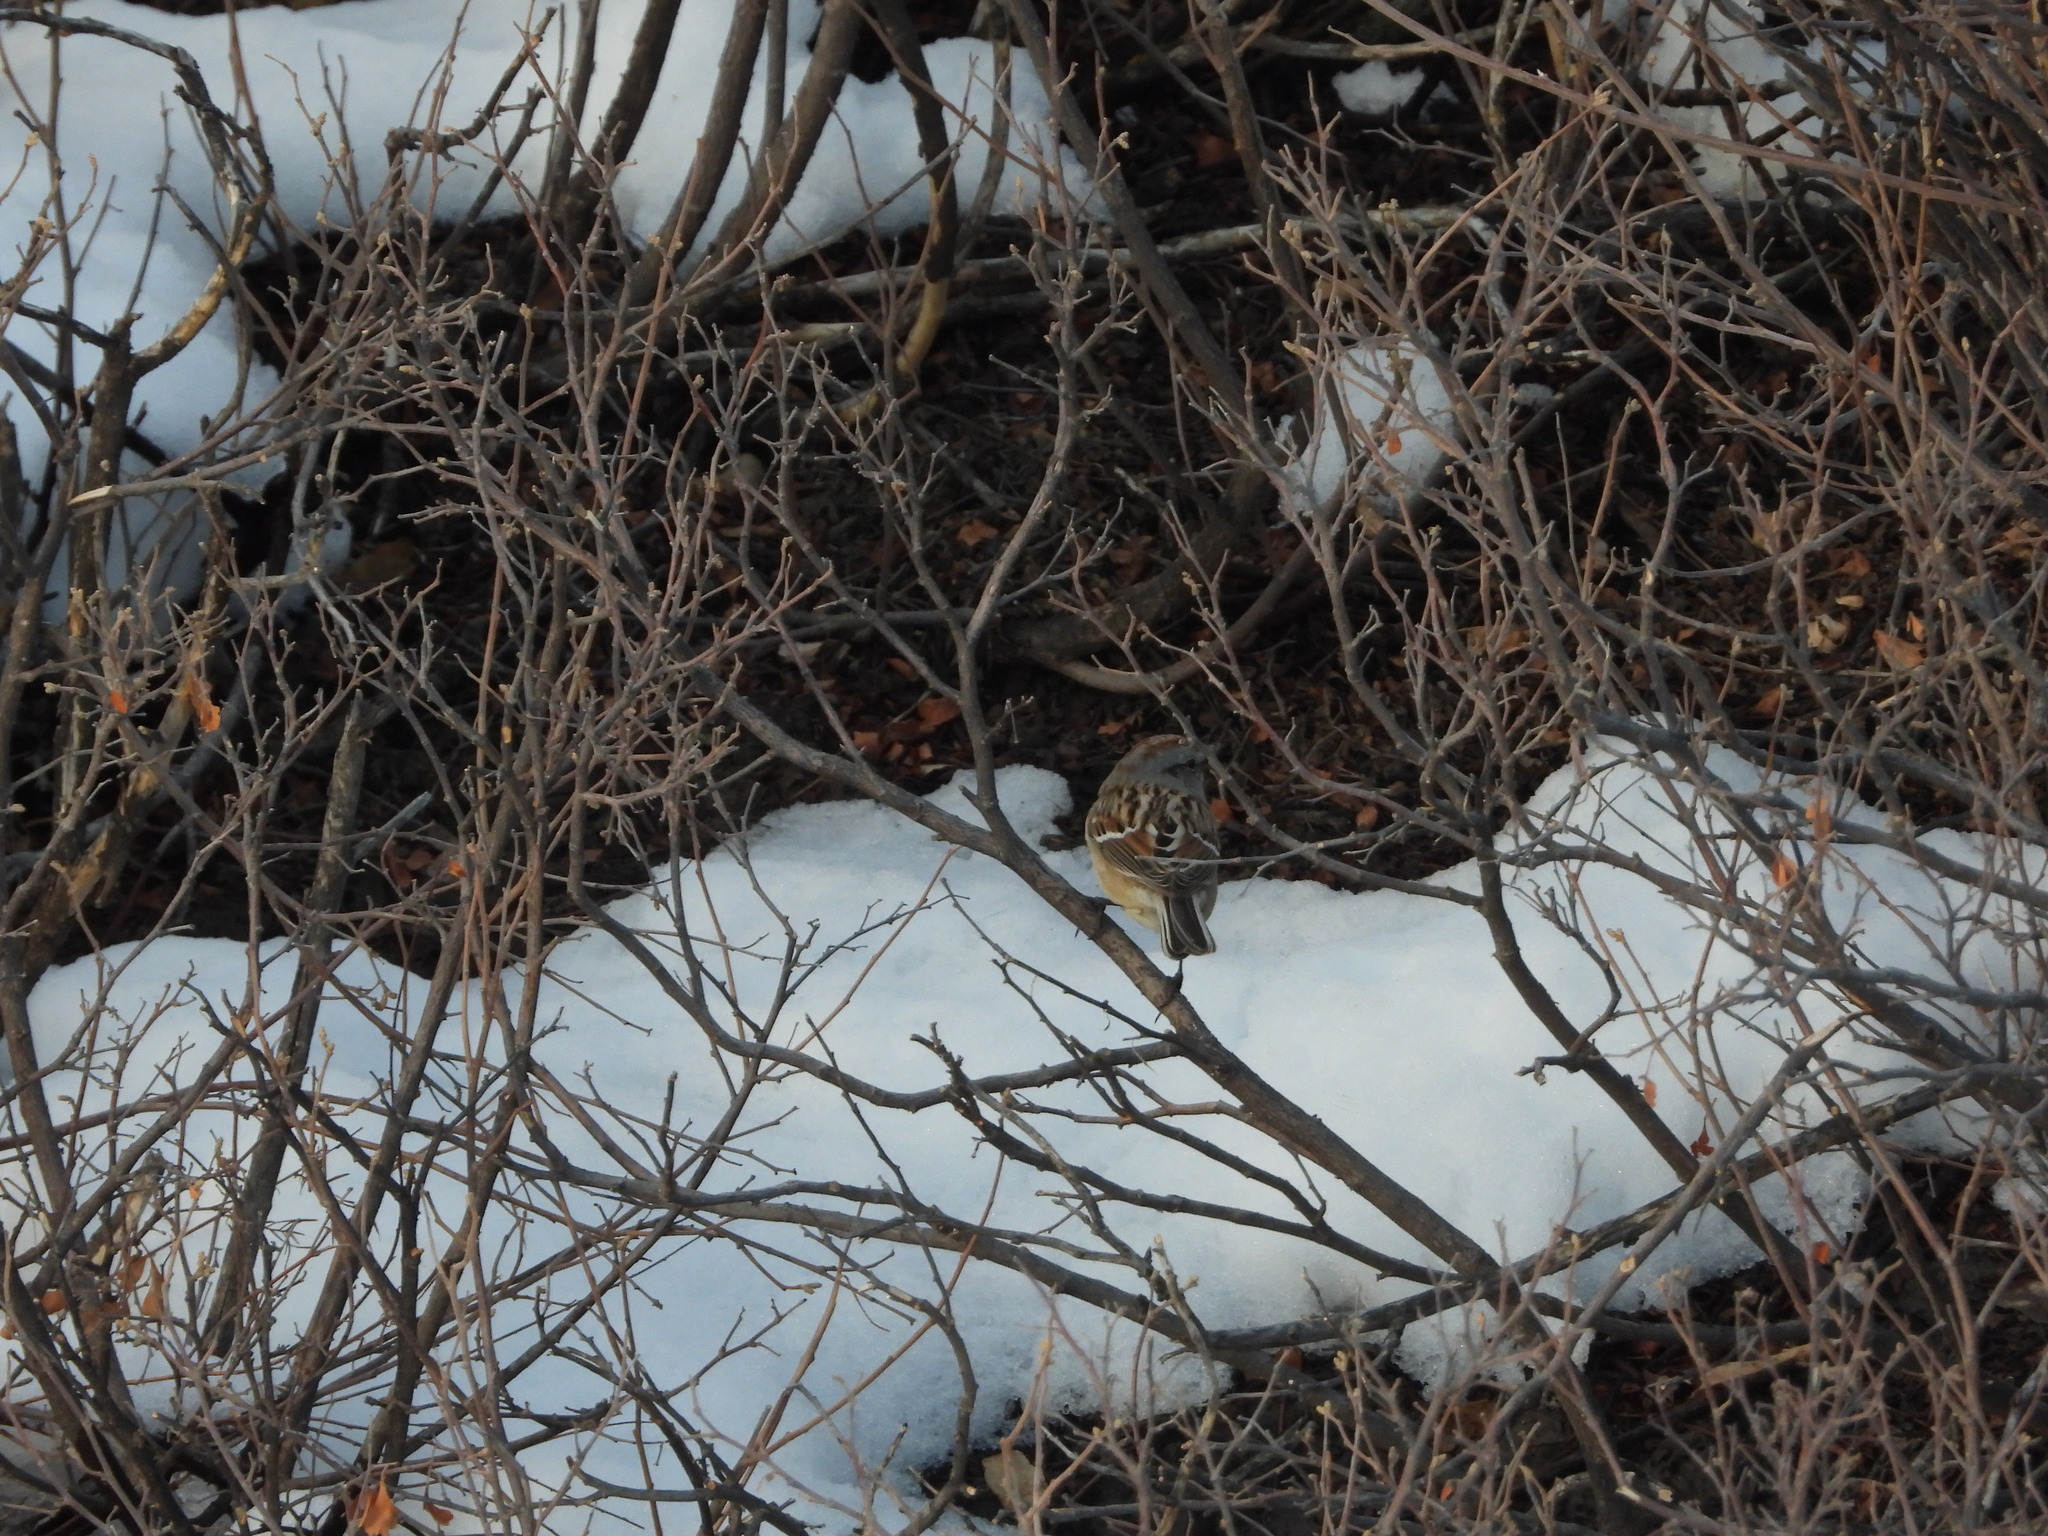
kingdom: Animalia
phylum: Chordata
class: Aves
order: Passeriformes
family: Passerellidae
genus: Spizelloides
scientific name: Spizelloides arborea
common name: American tree sparrow
